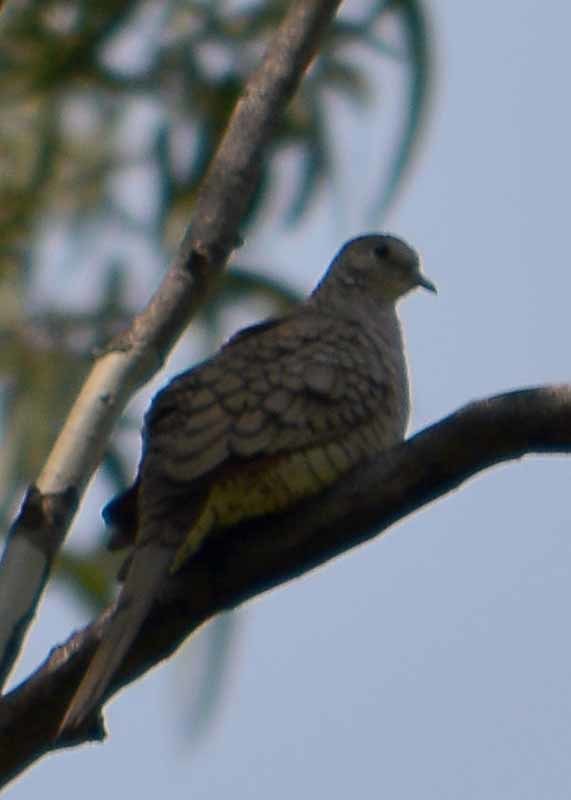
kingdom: Animalia
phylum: Chordata
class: Aves
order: Columbiformes
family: Columbidae
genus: Columbina
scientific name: Columbina inca
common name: Inca dove
